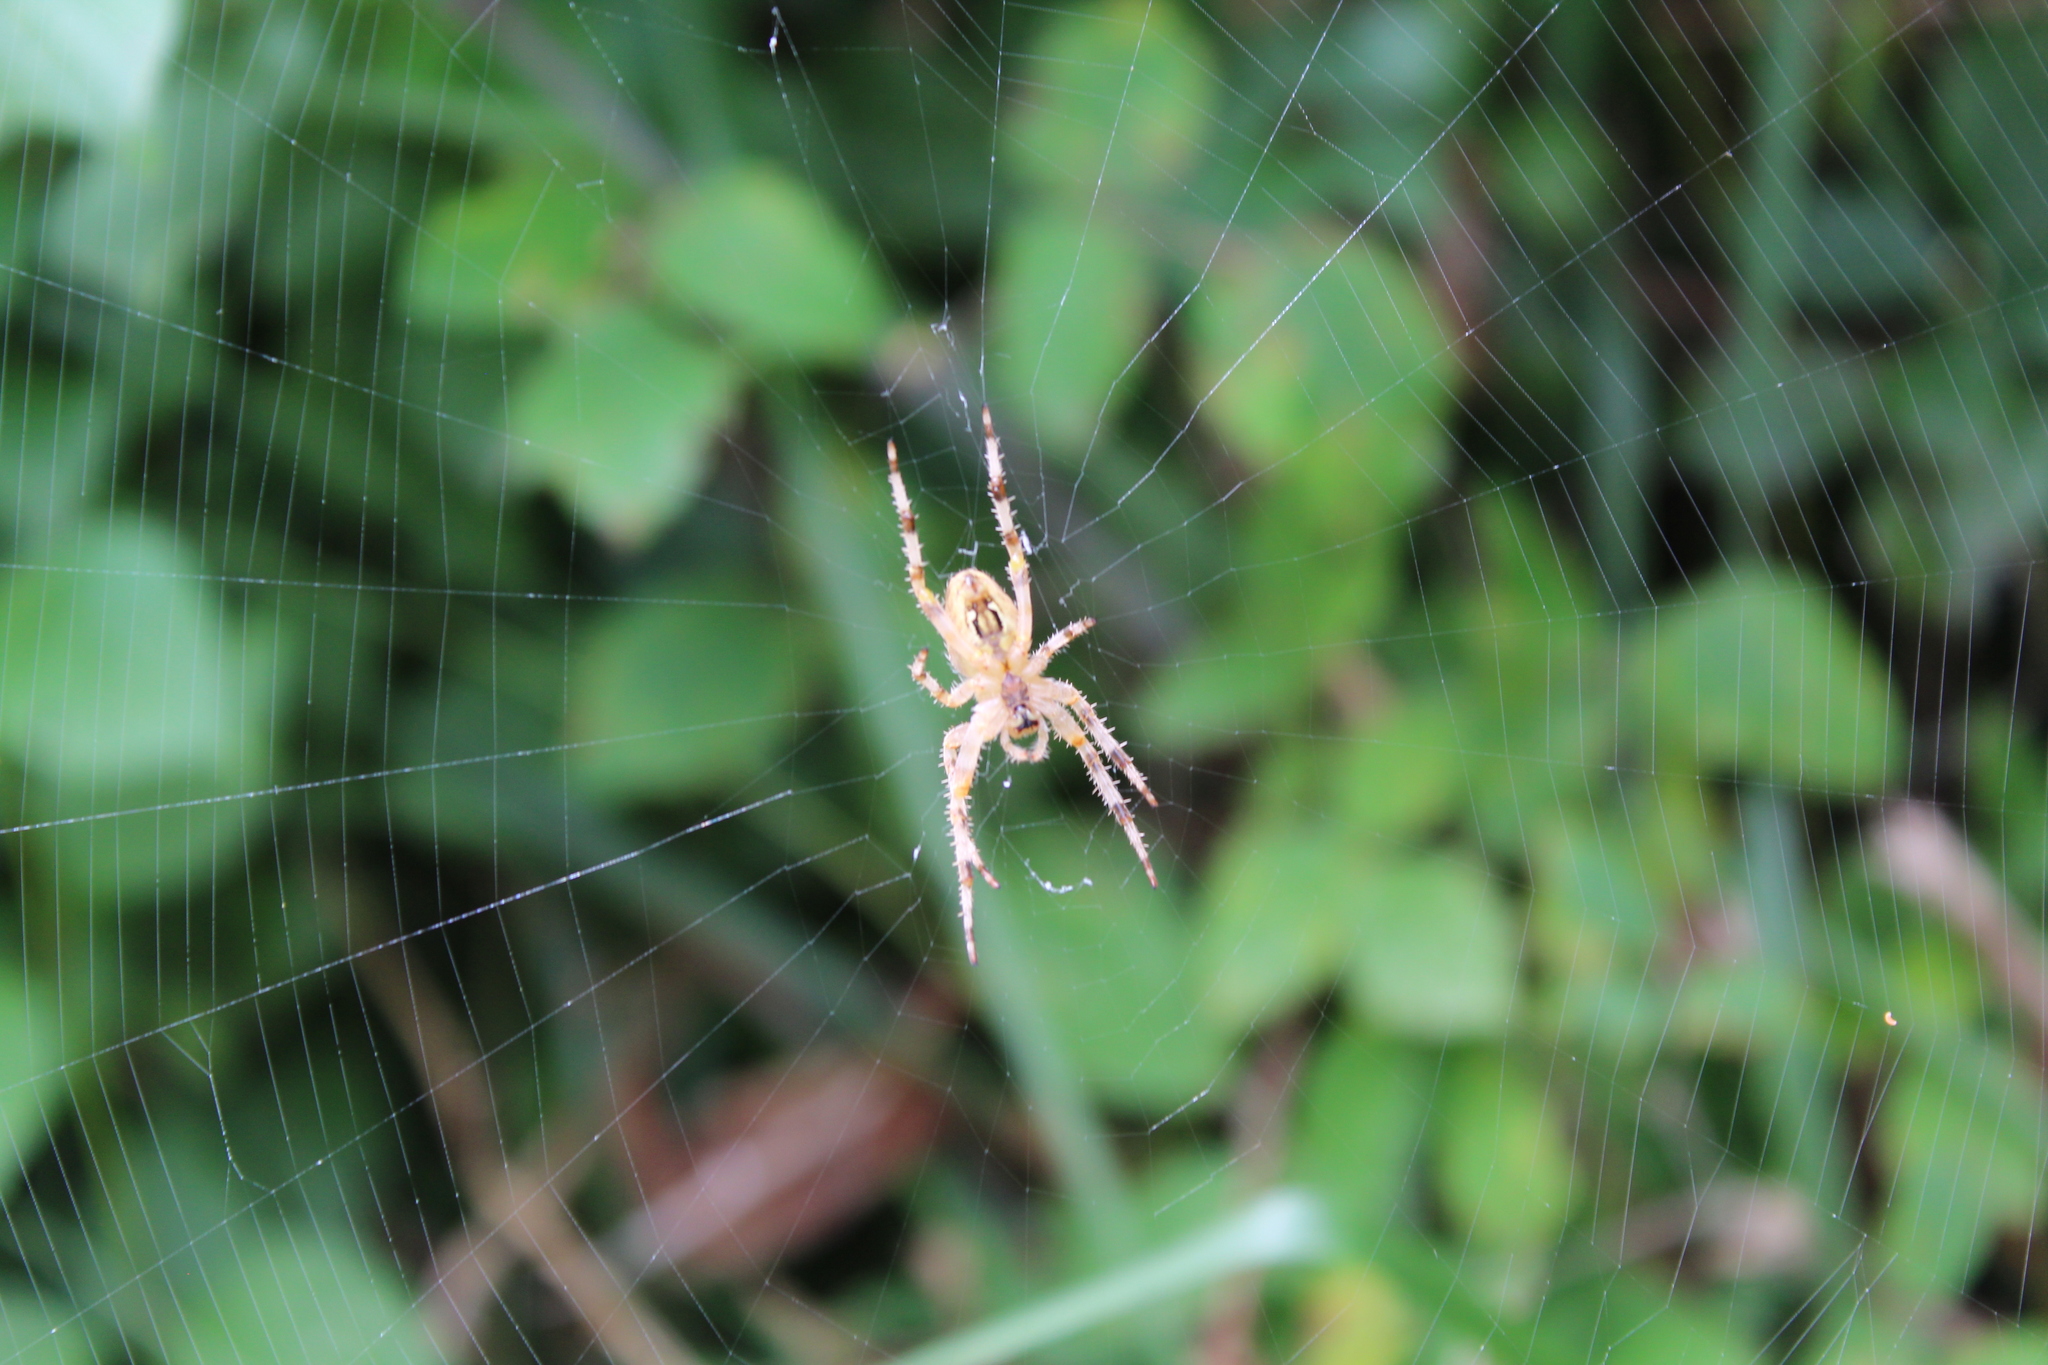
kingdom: Animalia
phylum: Arthropoda
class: Arachnida
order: Araneae
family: Araneidae
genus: Araneus
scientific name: Araneus diadematus
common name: Cross orbweaver
